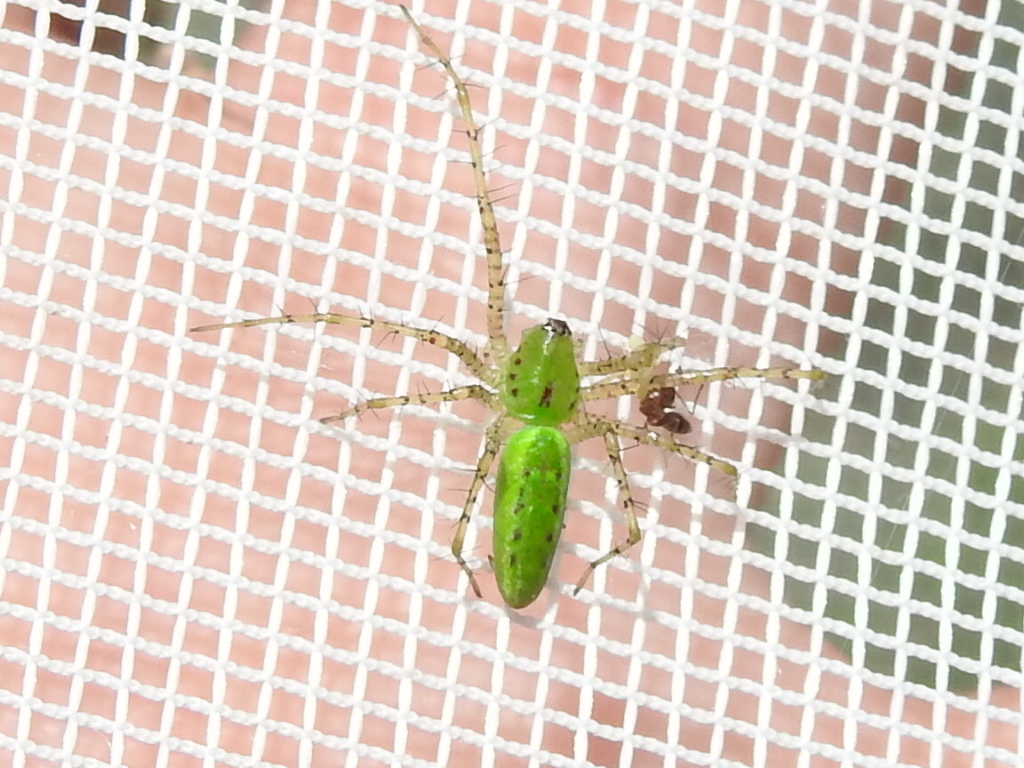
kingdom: Animalia
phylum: Arthropoda
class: Arachnida
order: Araneae
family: Oxyopidae
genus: Peucetia
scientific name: Peucetia viridans
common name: Lynx spiders
